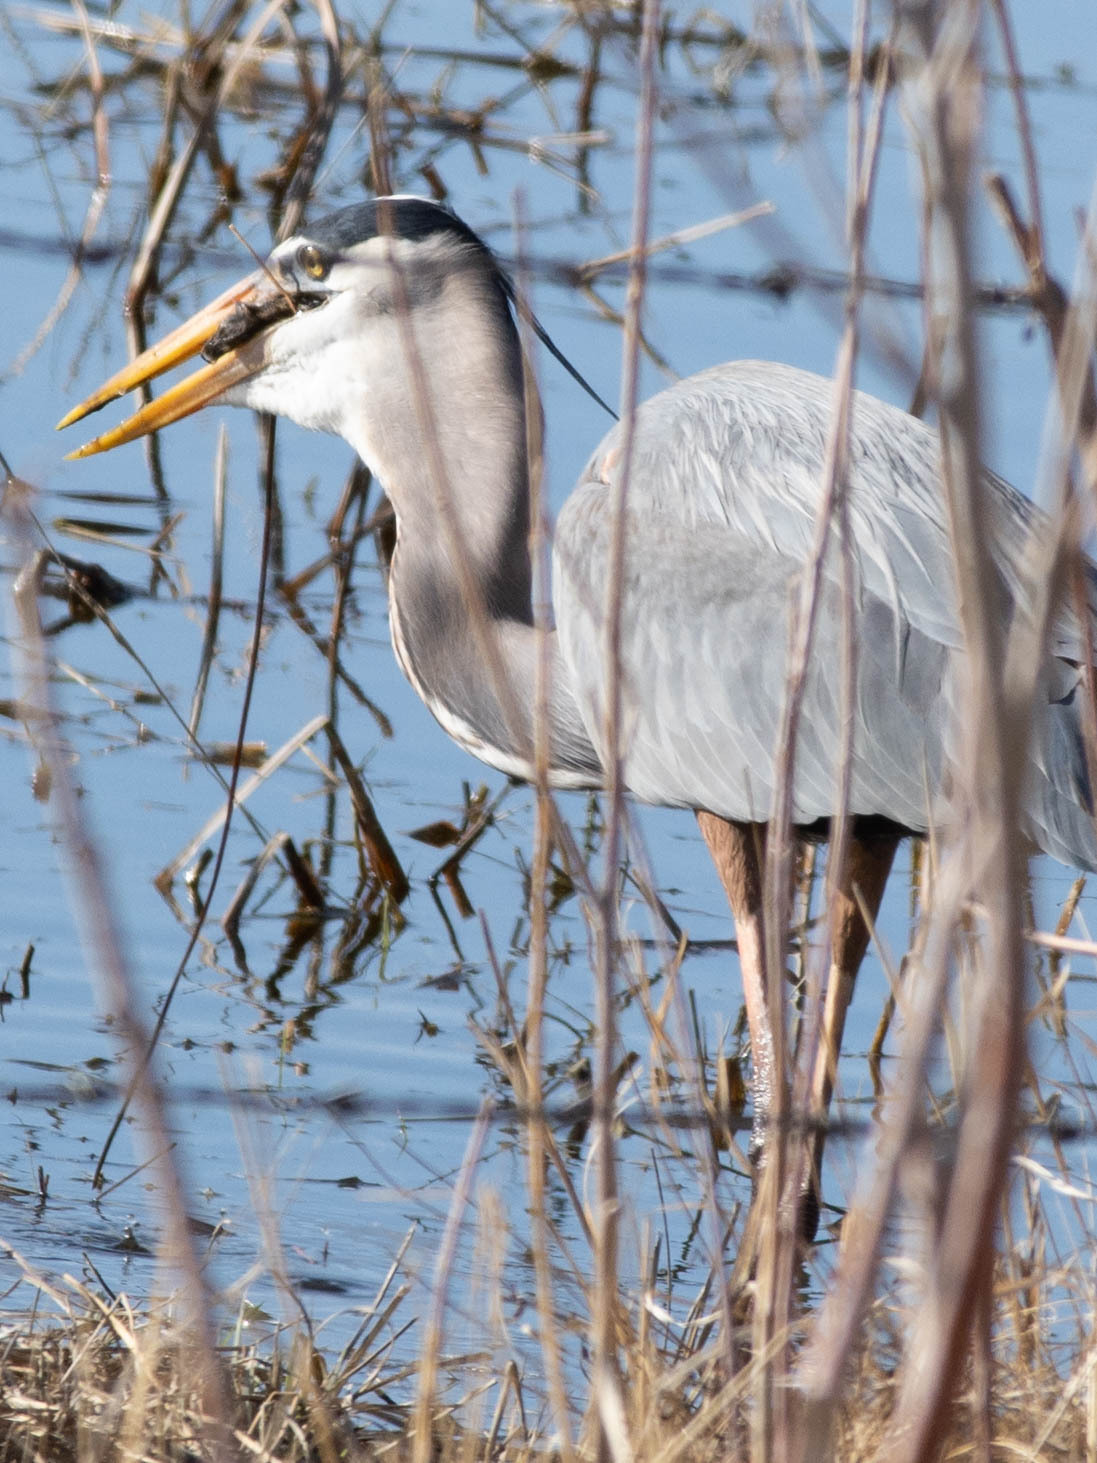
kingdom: Animalia
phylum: Chordata
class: Aves
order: Pelecaniformes
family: Ardeidae
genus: Ardea
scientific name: Ardea herodias
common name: Great blue heron
